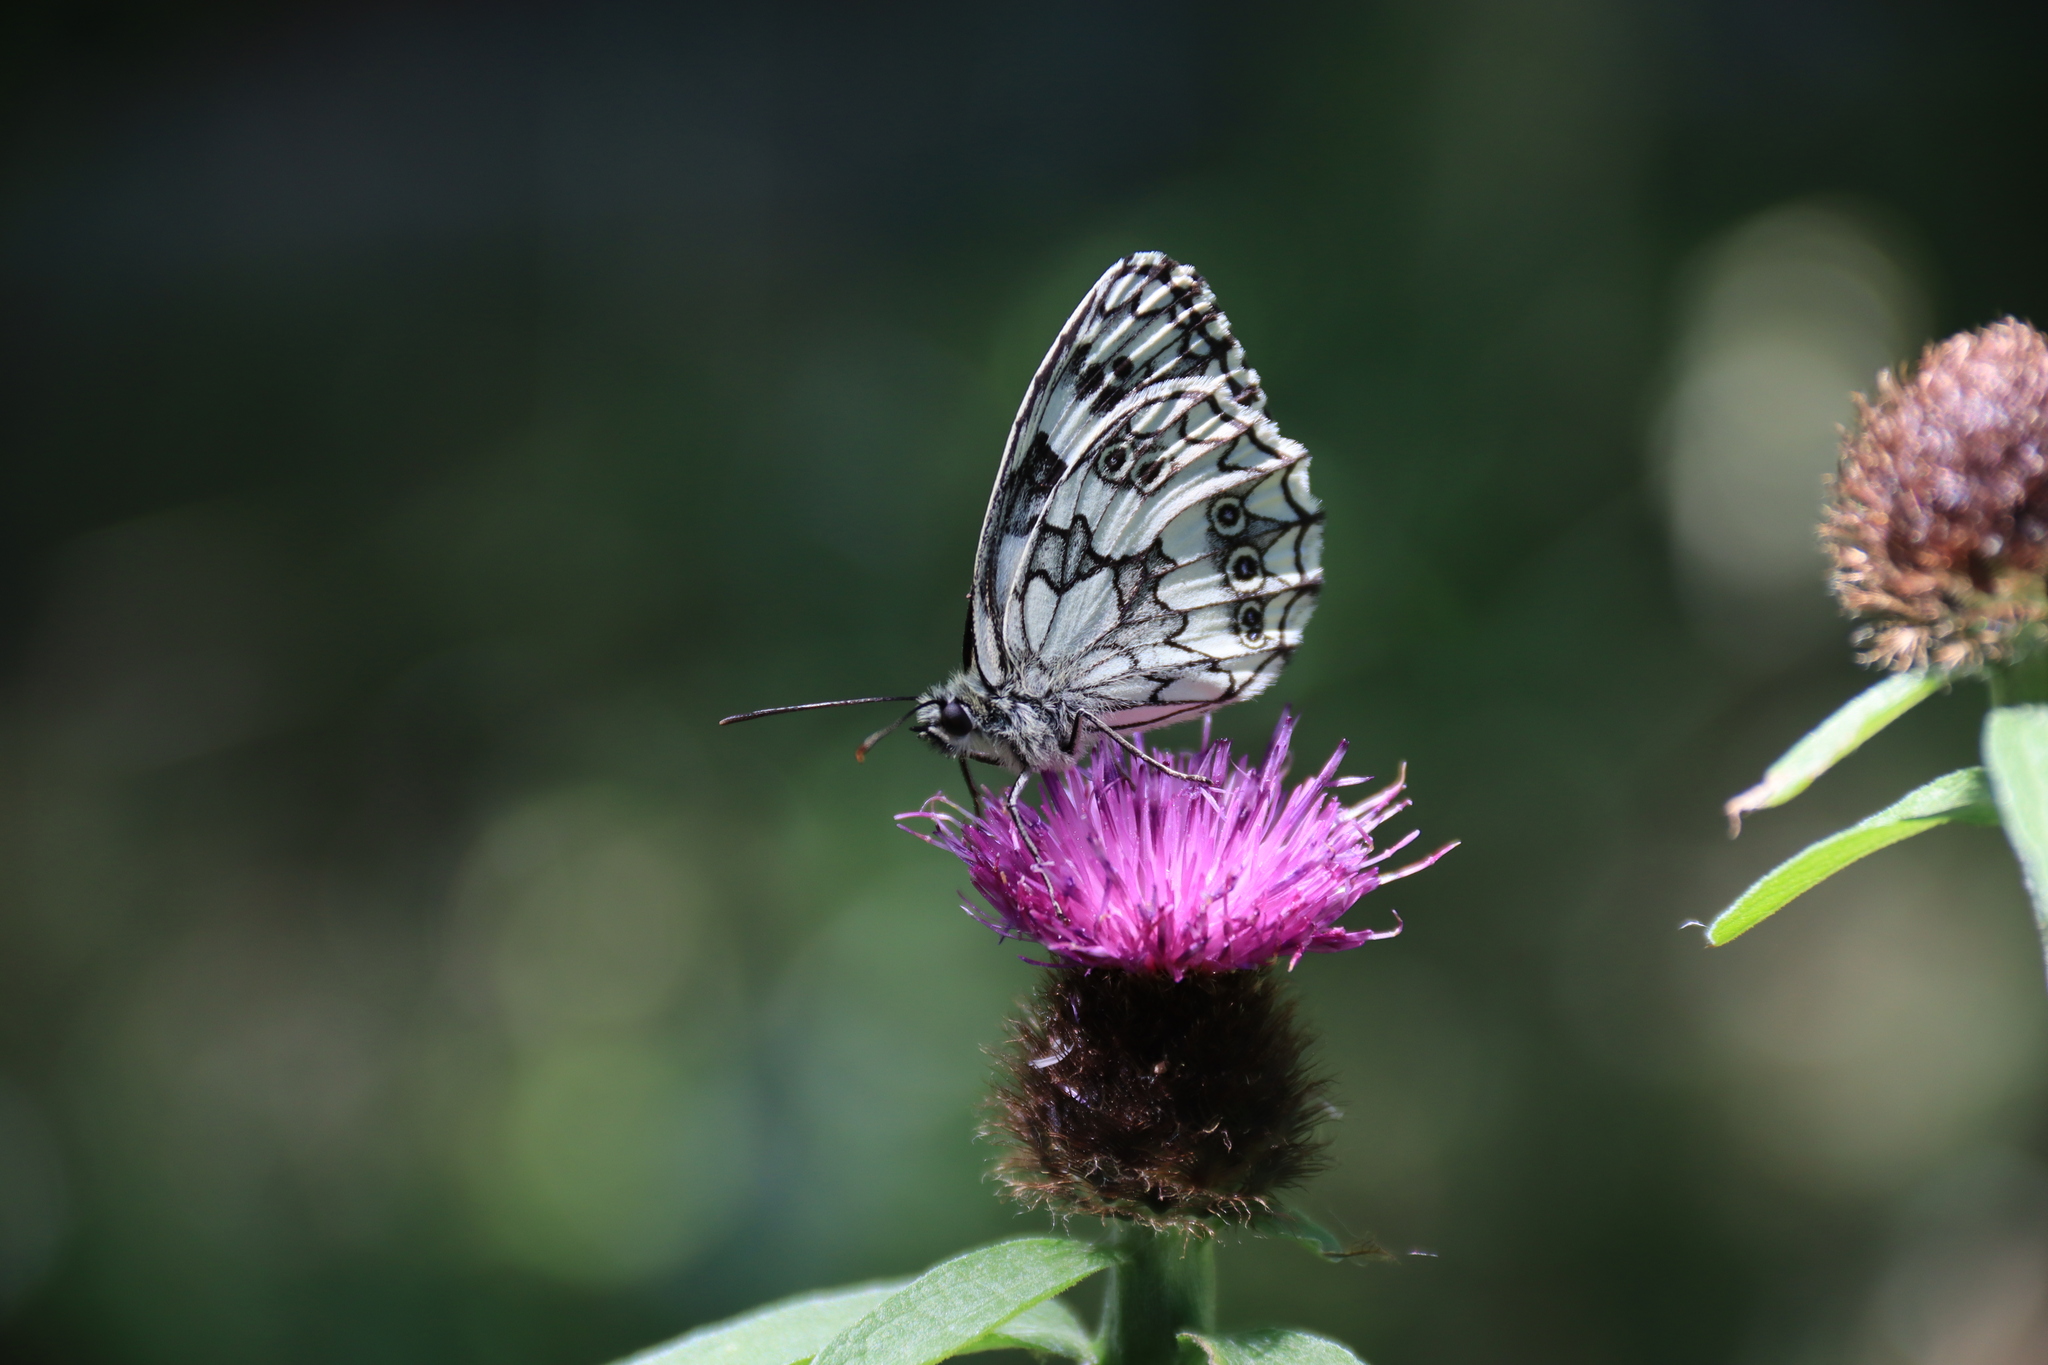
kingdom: Animalia
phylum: Arthropoda
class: Insecta
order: Lepidoptera
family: Nymphalidae
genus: Melanargia
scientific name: Melanargia galathea
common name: Marbled white
